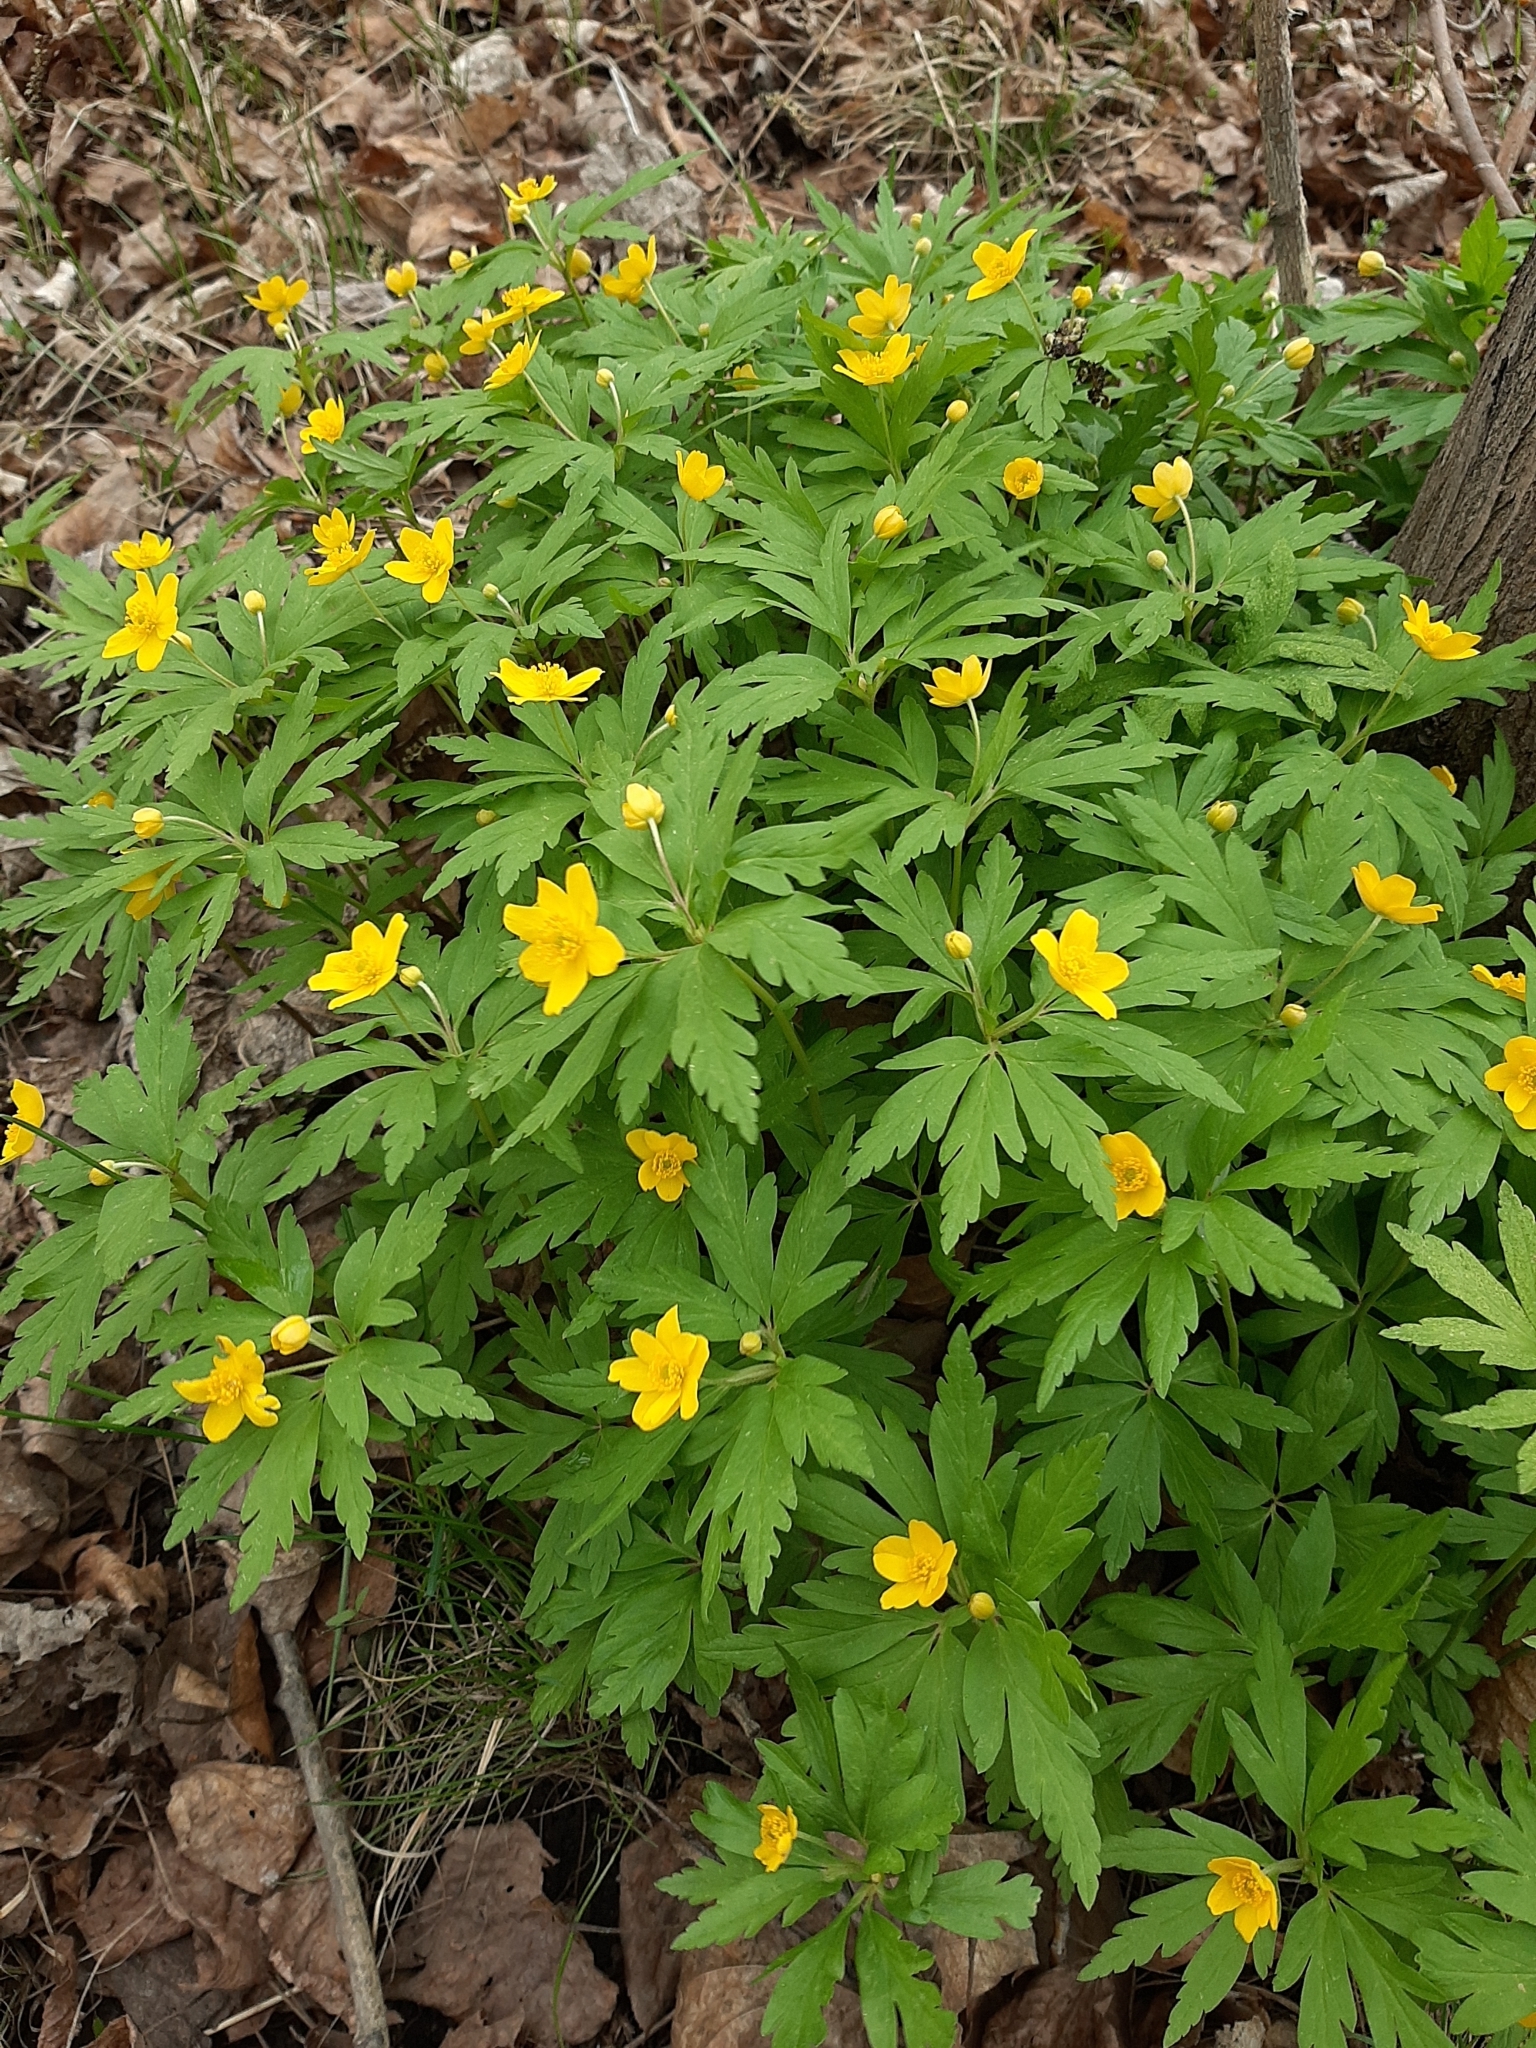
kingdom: Plantae
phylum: Tracheophyta
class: Magnoliopsida
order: Ranunculales
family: Ranunculaceae
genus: Anemone
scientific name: Anemone ranunculoides
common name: Yellow anemone
